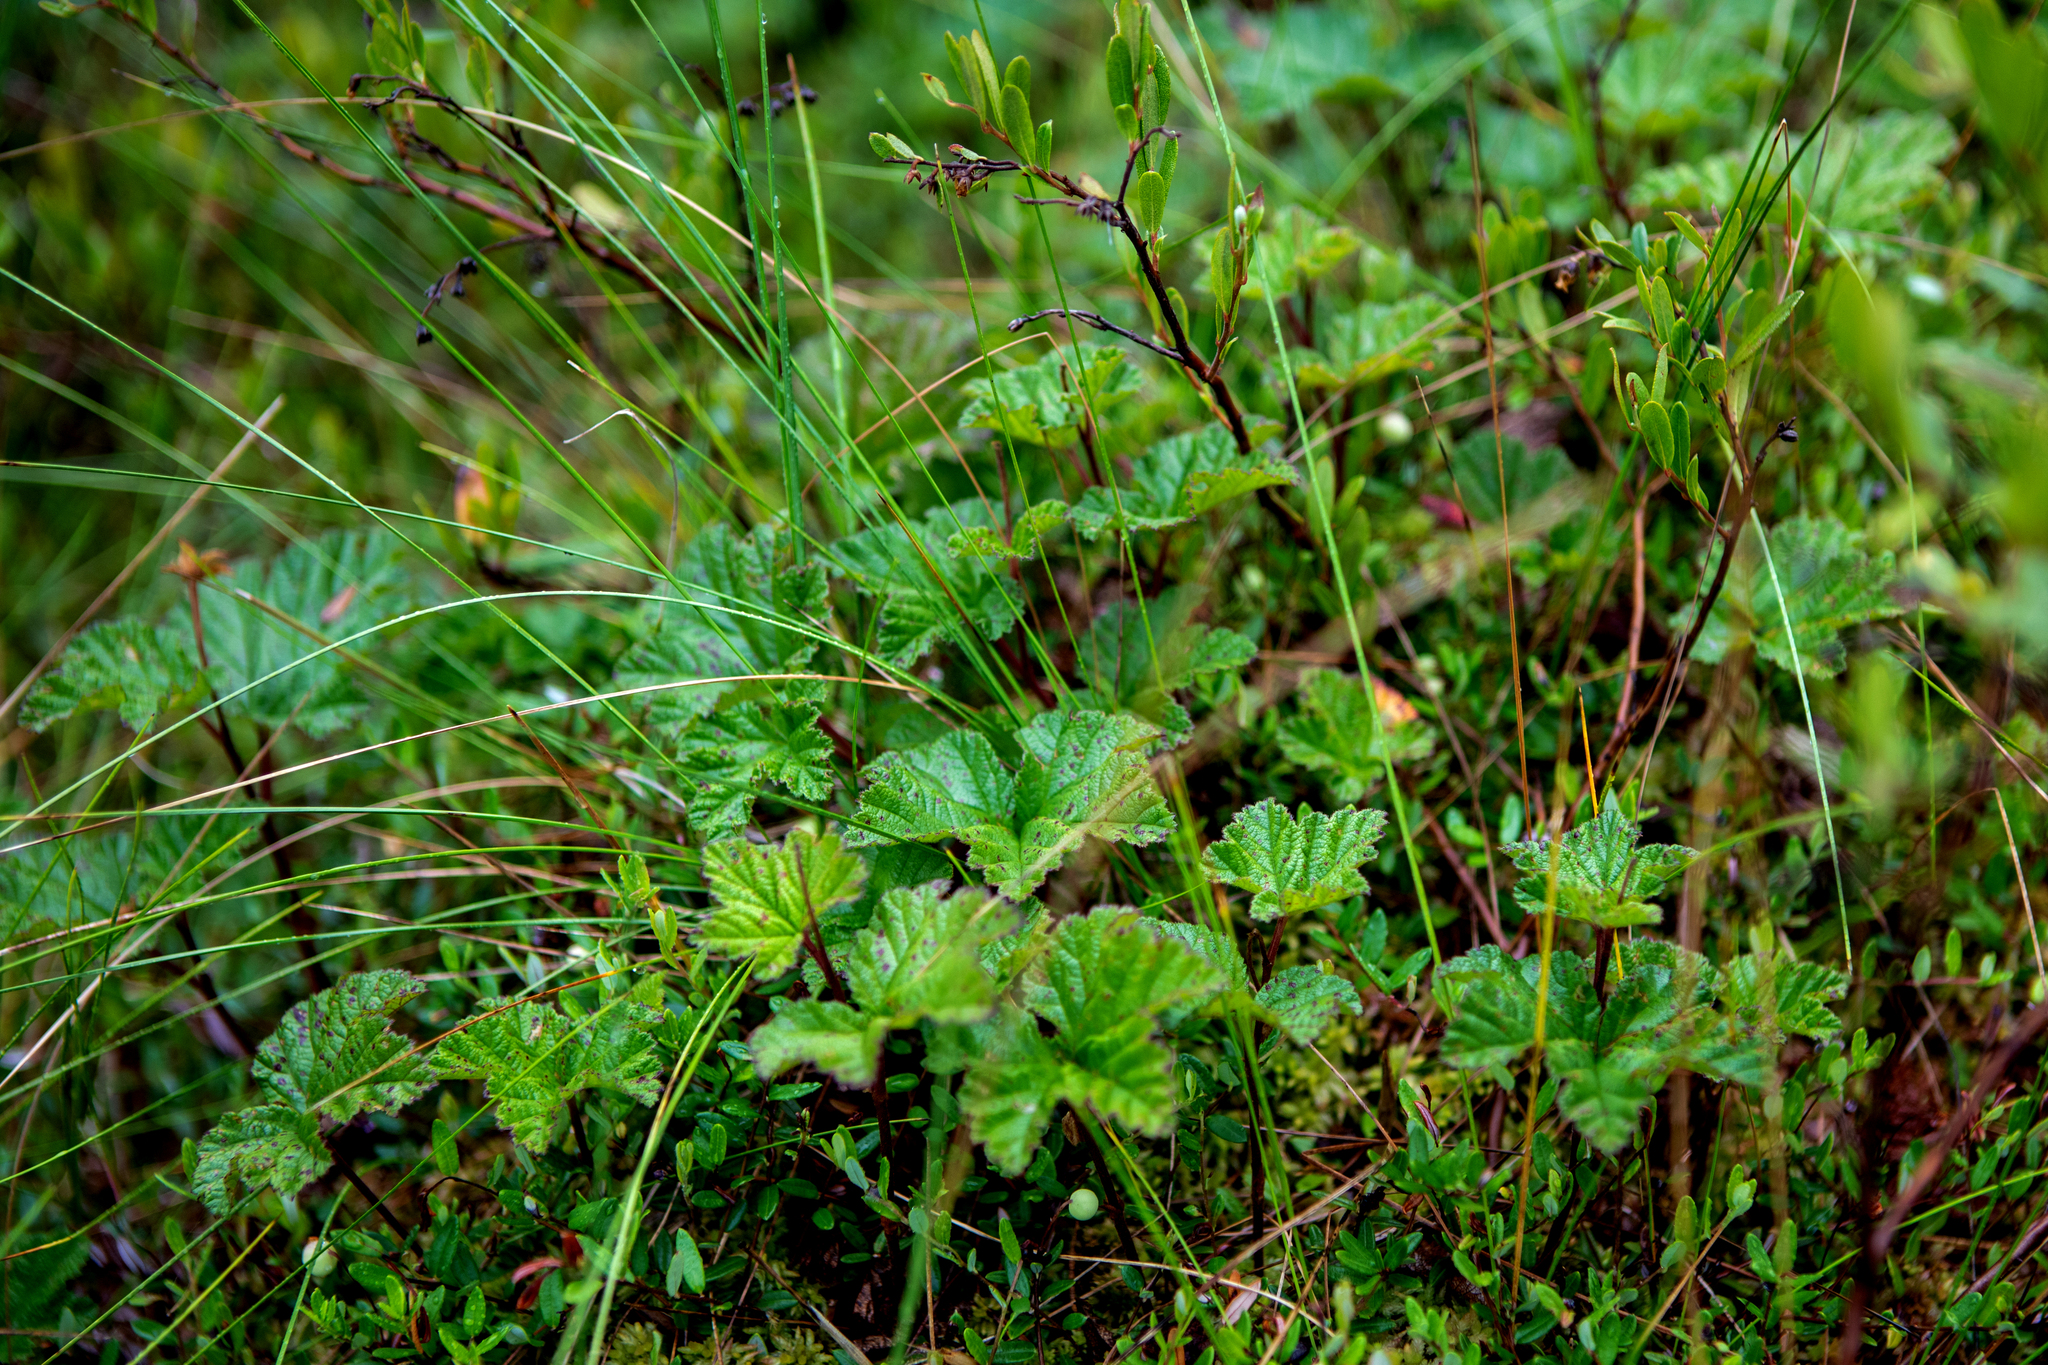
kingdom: Plantae
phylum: Tracheophyta
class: Magnoliopsida
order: Rosales
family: Rosaceae
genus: Rubus
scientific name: Rubus chamaemorus
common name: Cloudberry
